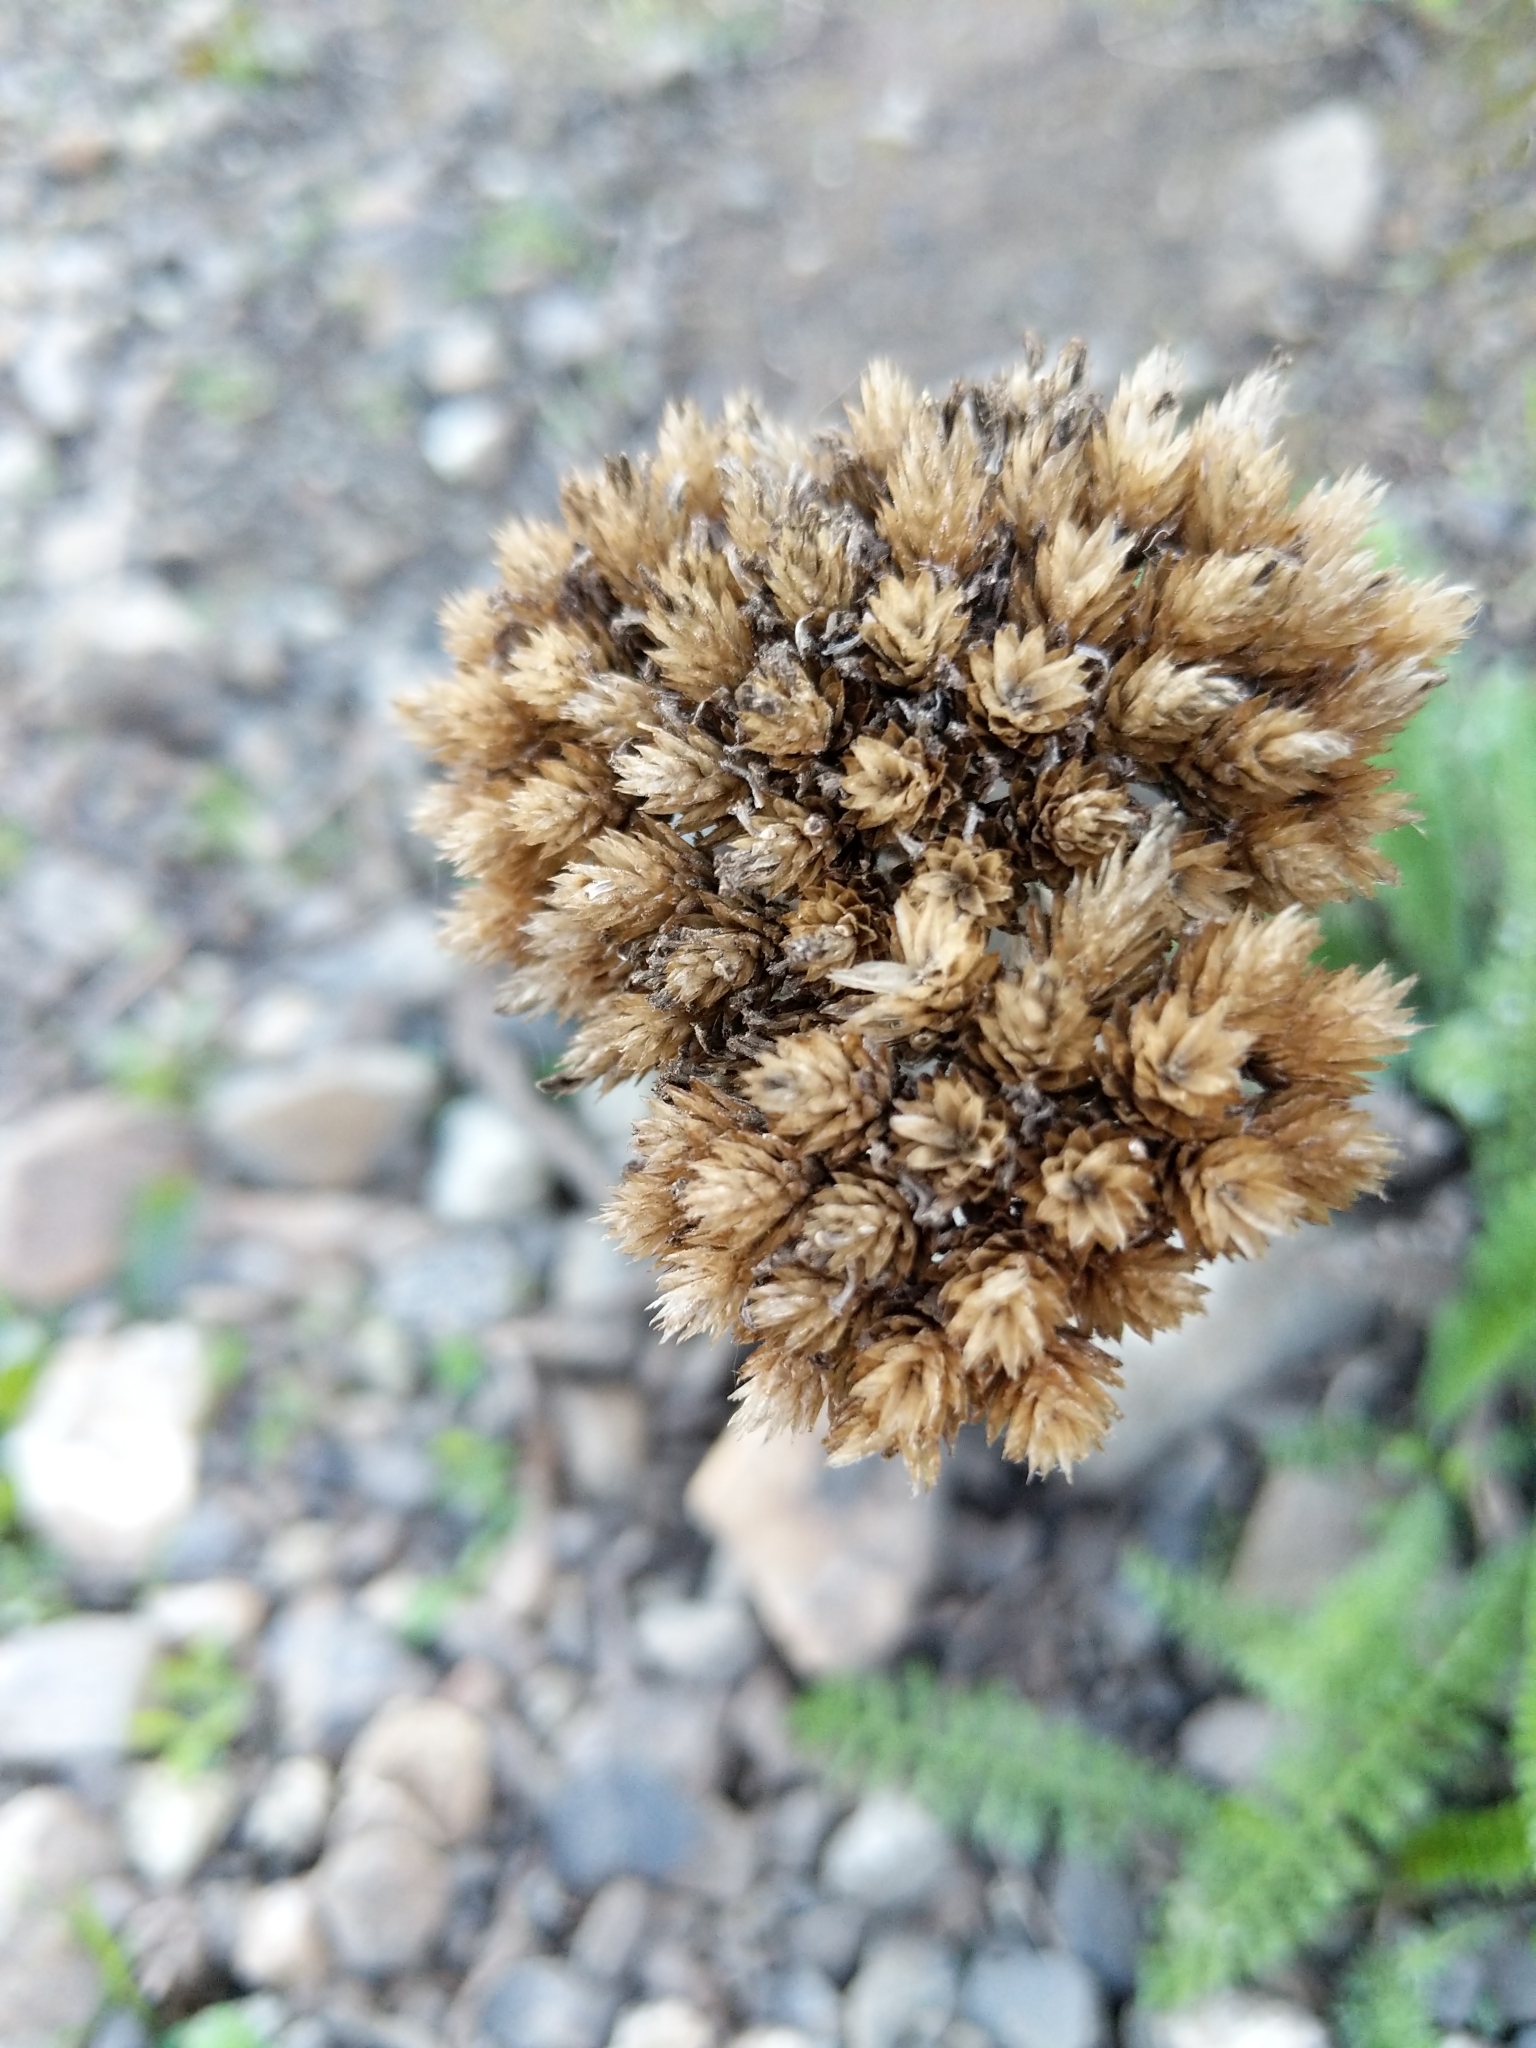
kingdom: Plantae
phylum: Tracheophyta
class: Magnoliopsida
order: Asterales
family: Asteraceae
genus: Achillea
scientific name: Achillea millefolium
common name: Yarrow
